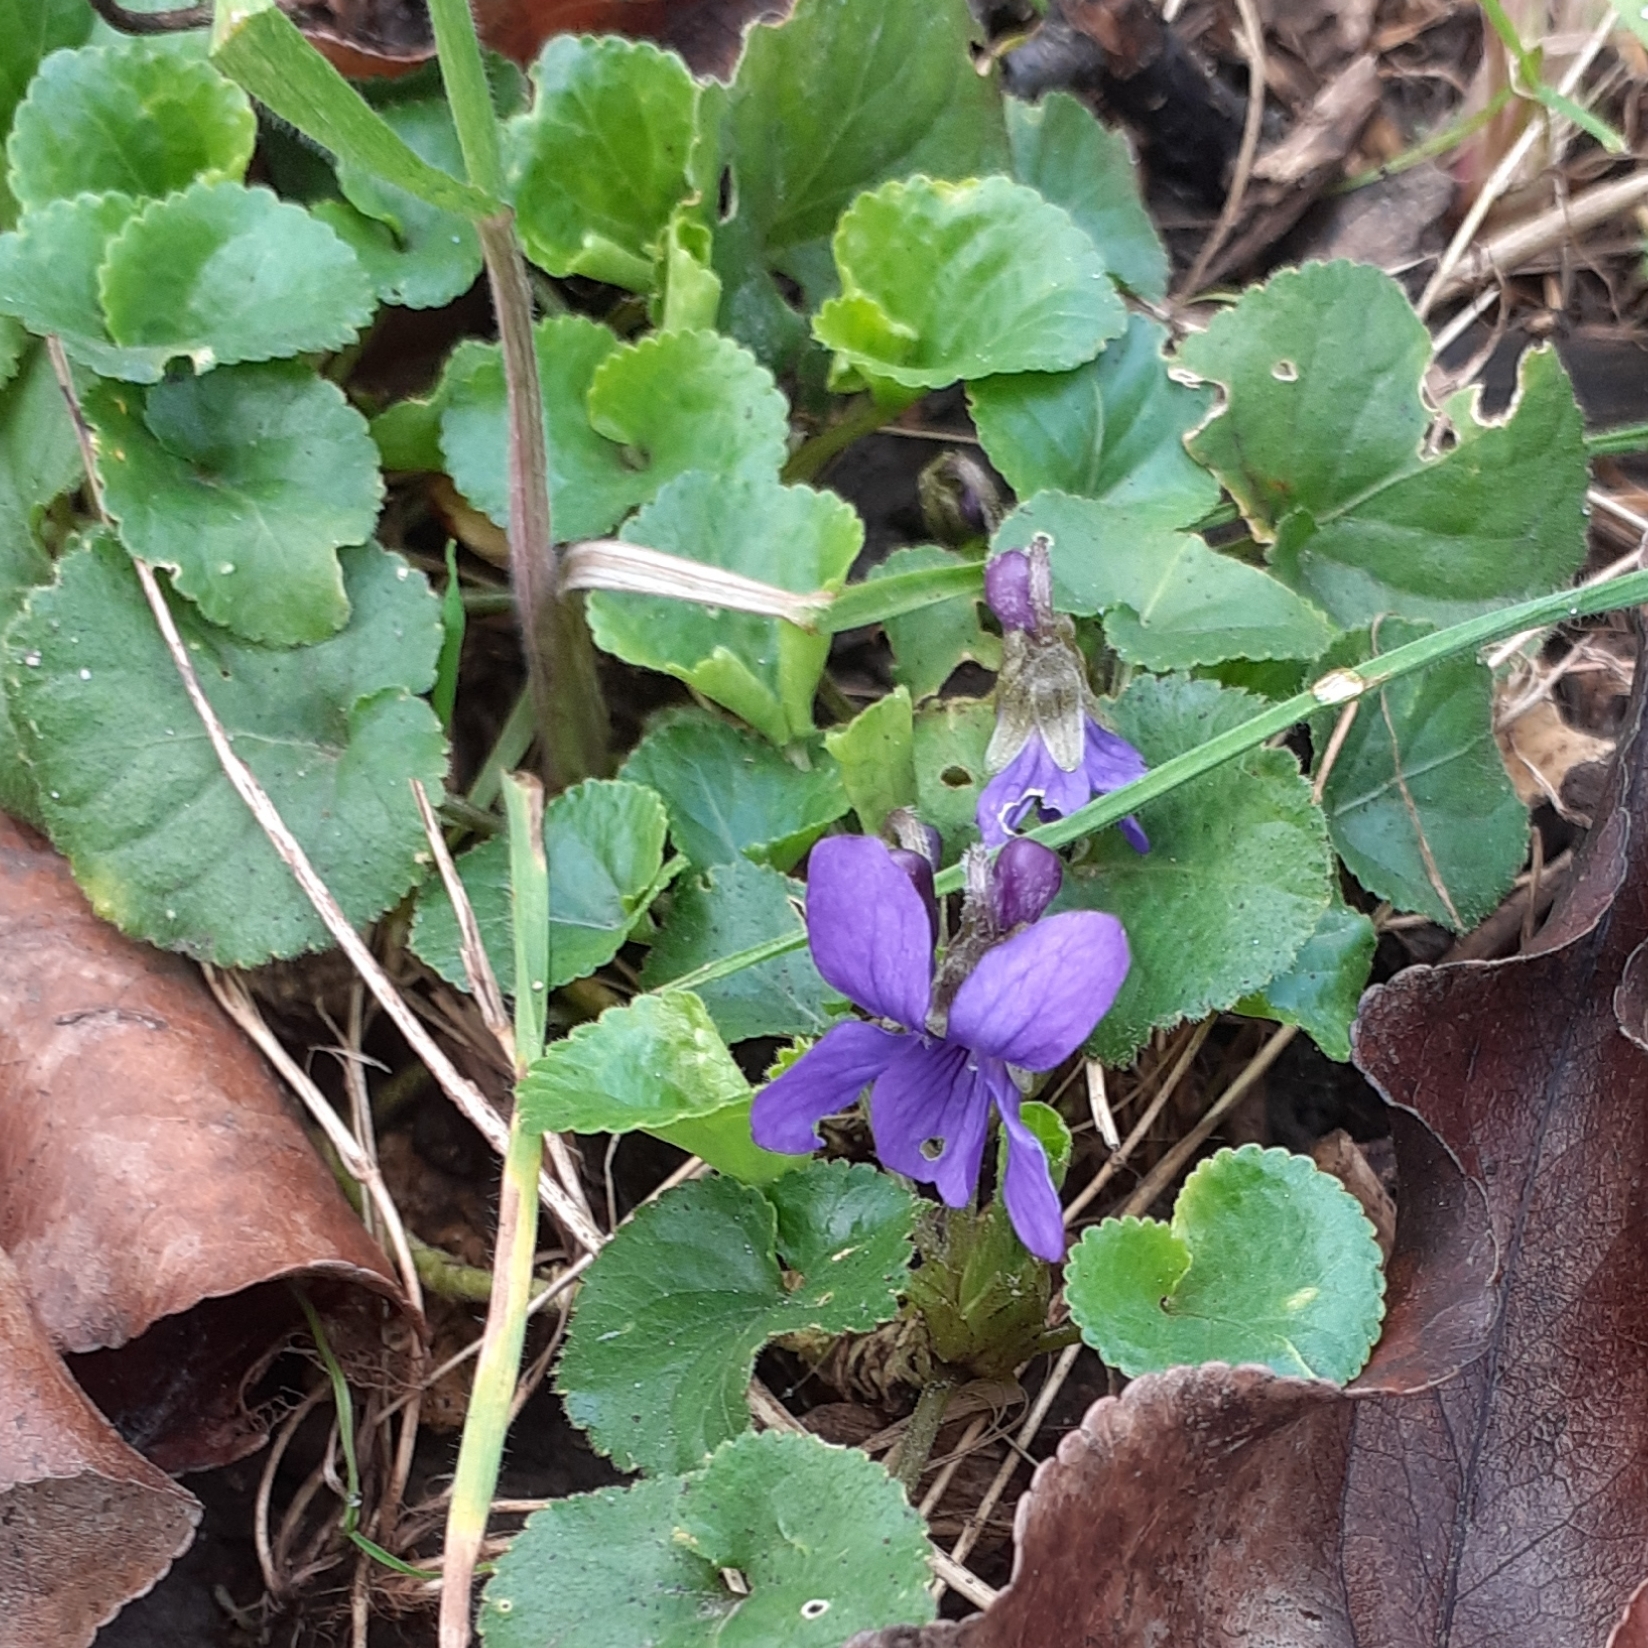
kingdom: Plantae
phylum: Tracheophyta
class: Magnoliopsida
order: Malpighiales
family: Violaceae
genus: Viola
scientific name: Viola odorata
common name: Sweet violet
